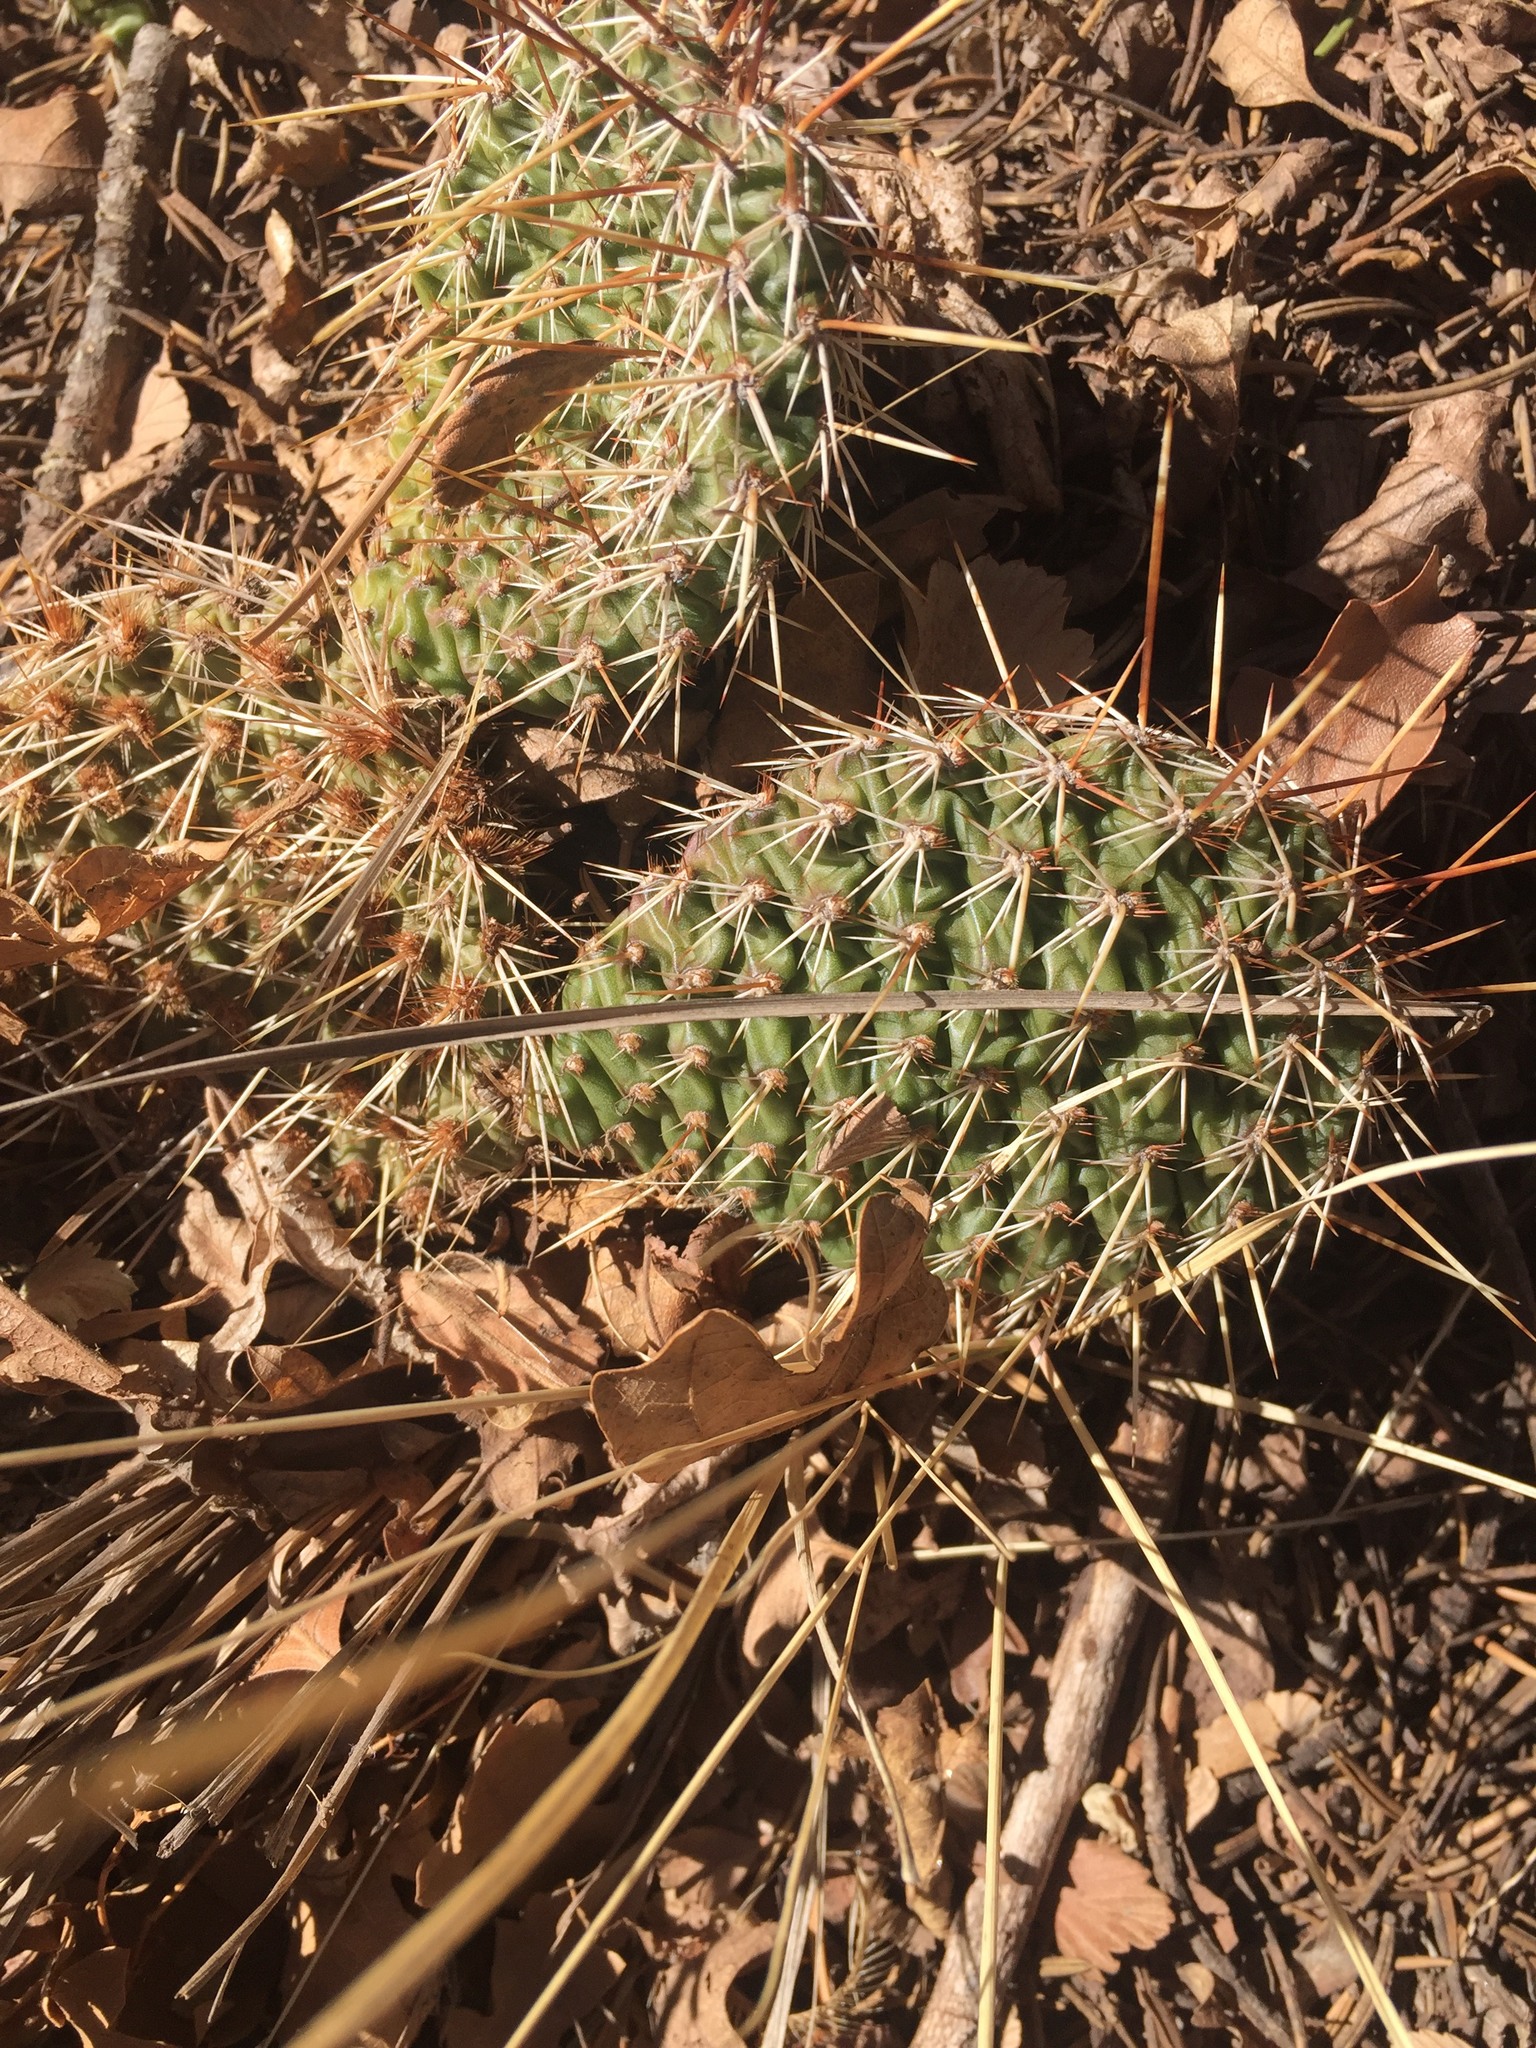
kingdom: Plantae
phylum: Tracheophyta
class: Magnoliopsida
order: Caryophyllales
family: Cactaceae
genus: Opuntia
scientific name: Opuntia polyacantha
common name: Plains prickly-pear
